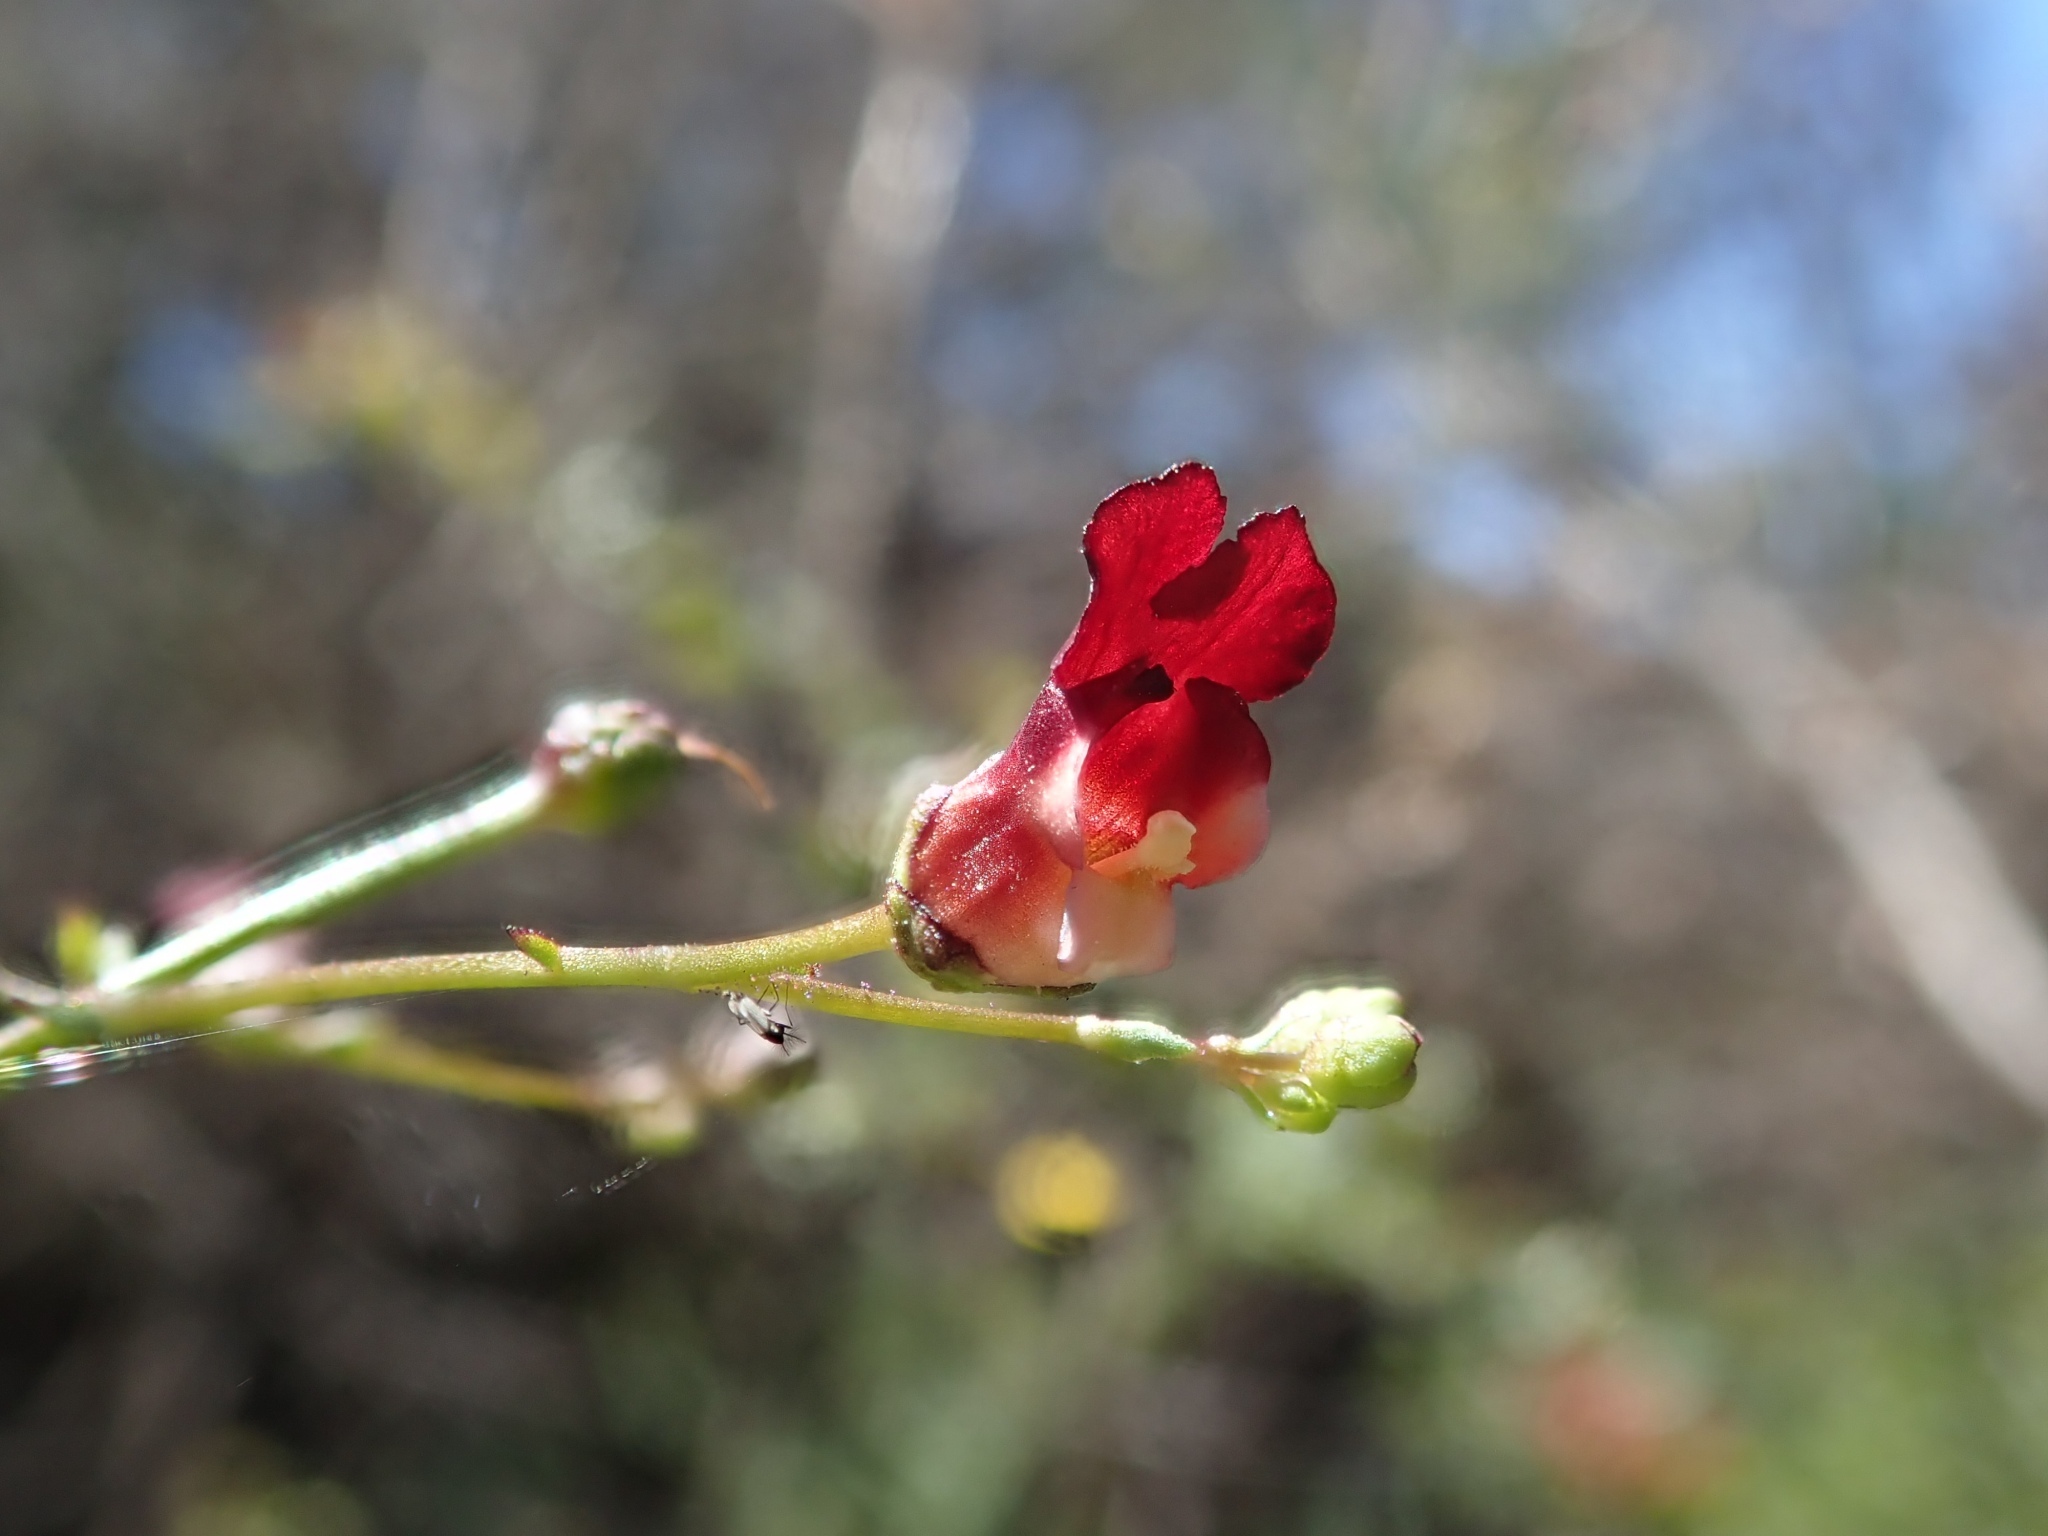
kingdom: Plantae
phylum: Tracheophyta
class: Magnoliopsida
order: Lamiales
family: Scrophulariaceae
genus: Scrophularia
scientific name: Scrophularia californica
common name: California figwort
